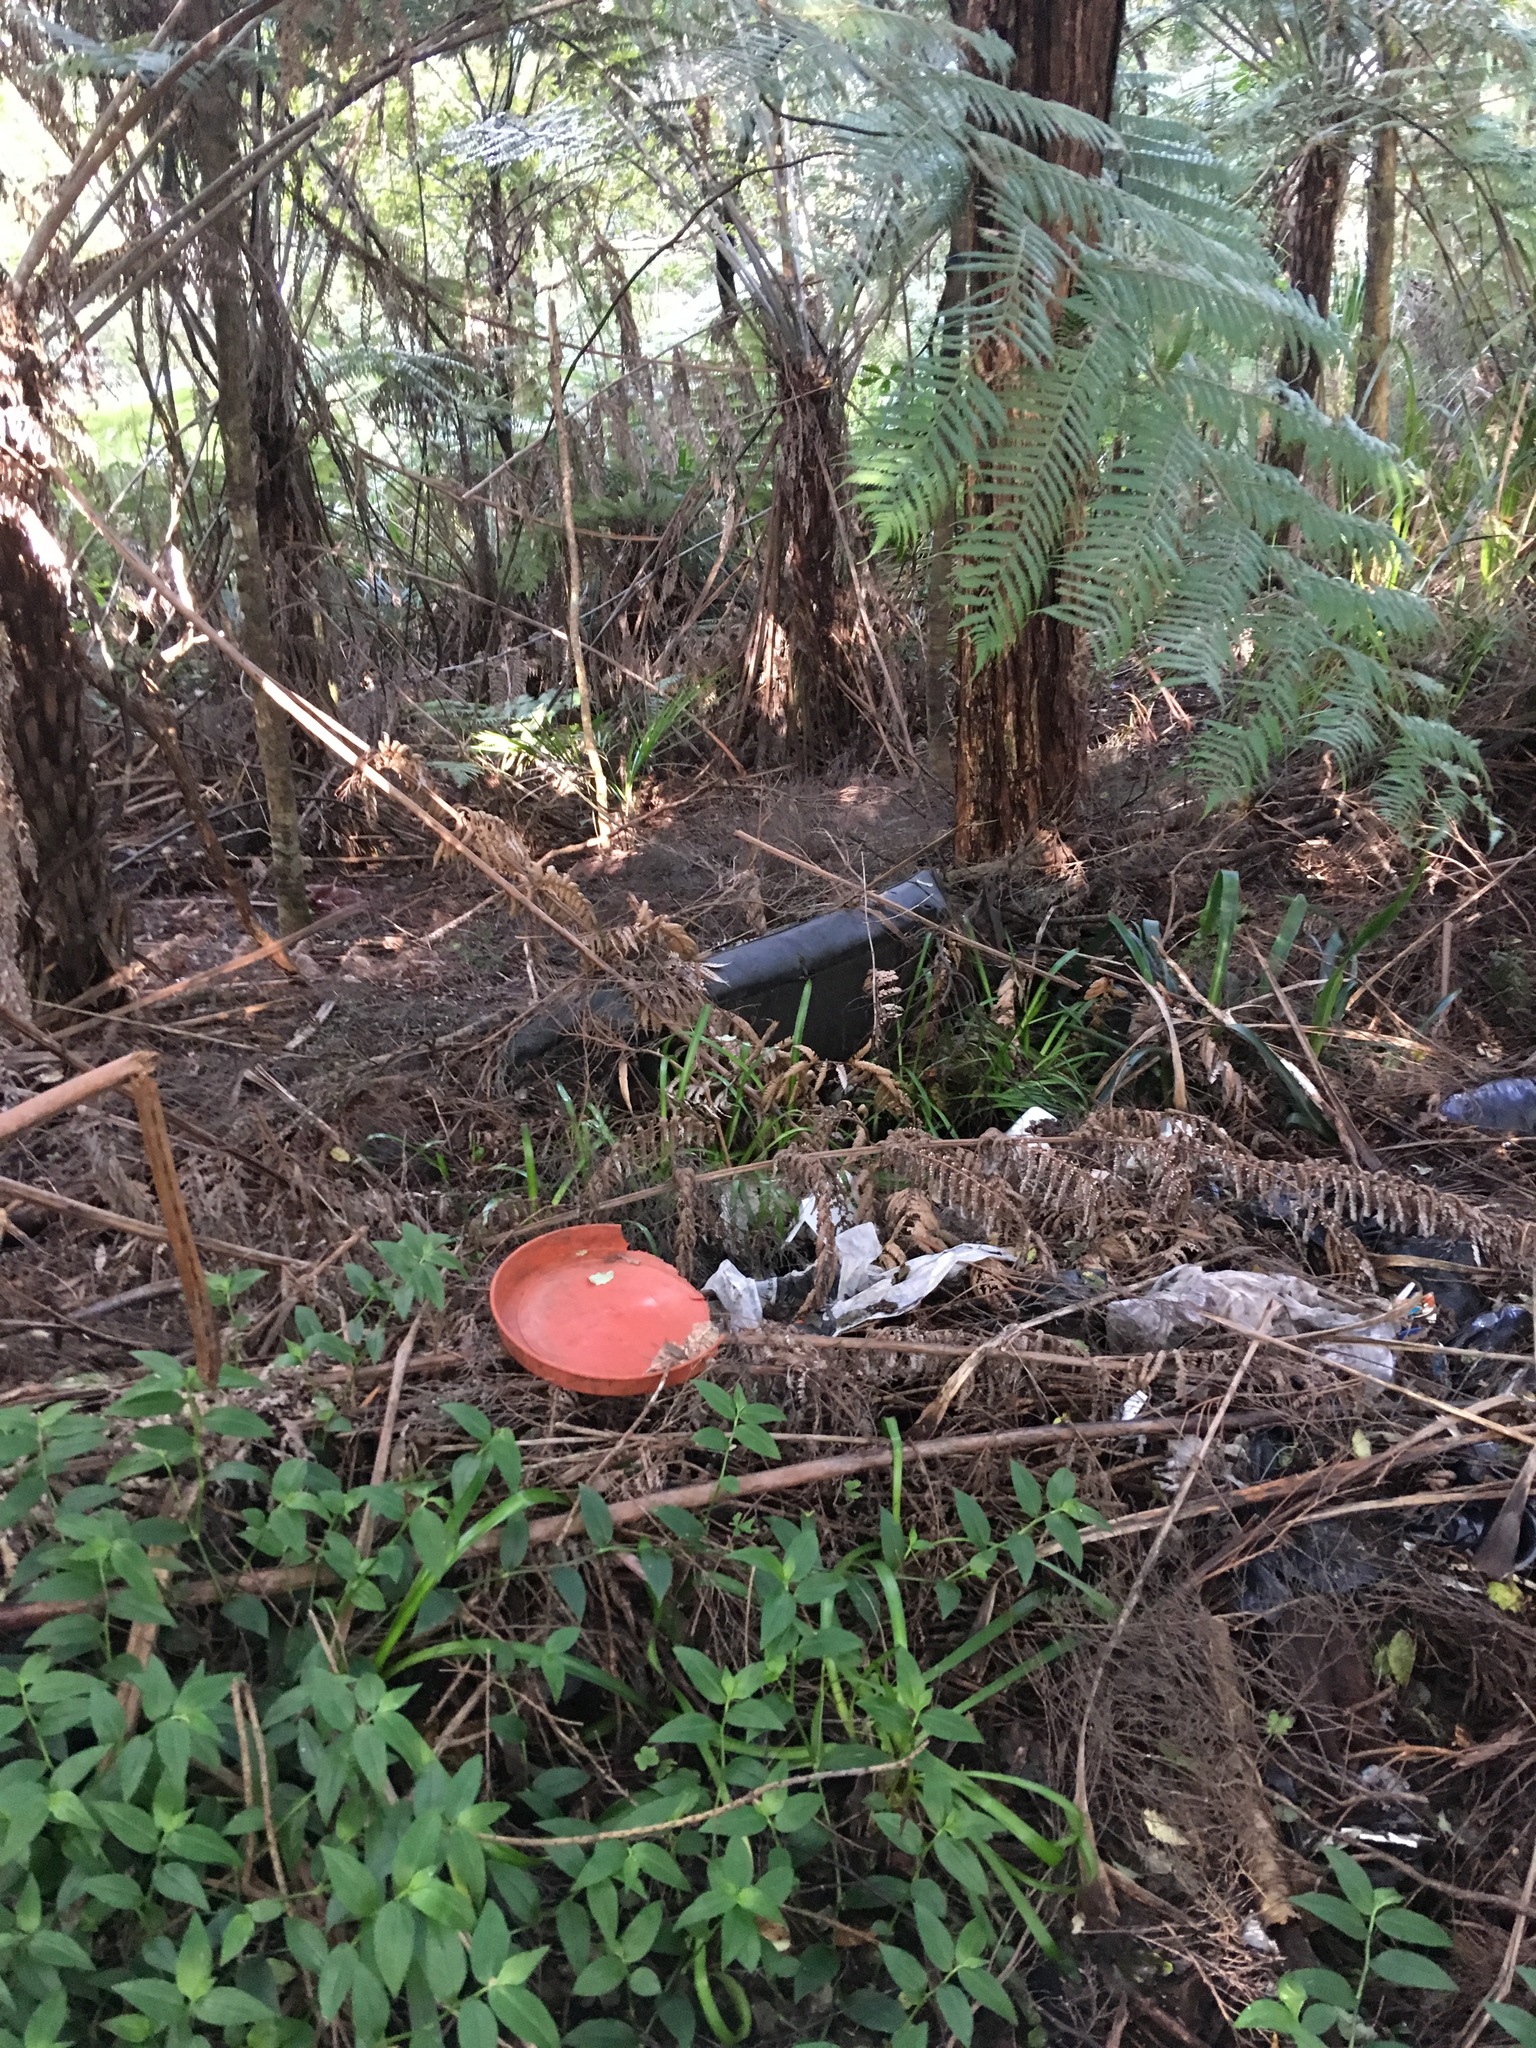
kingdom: Plantae
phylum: Tracheophyta
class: Polypodiopsida
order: Cyatheales
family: Cyatheaceae
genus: Alsophila
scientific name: Alsophila dealbata
